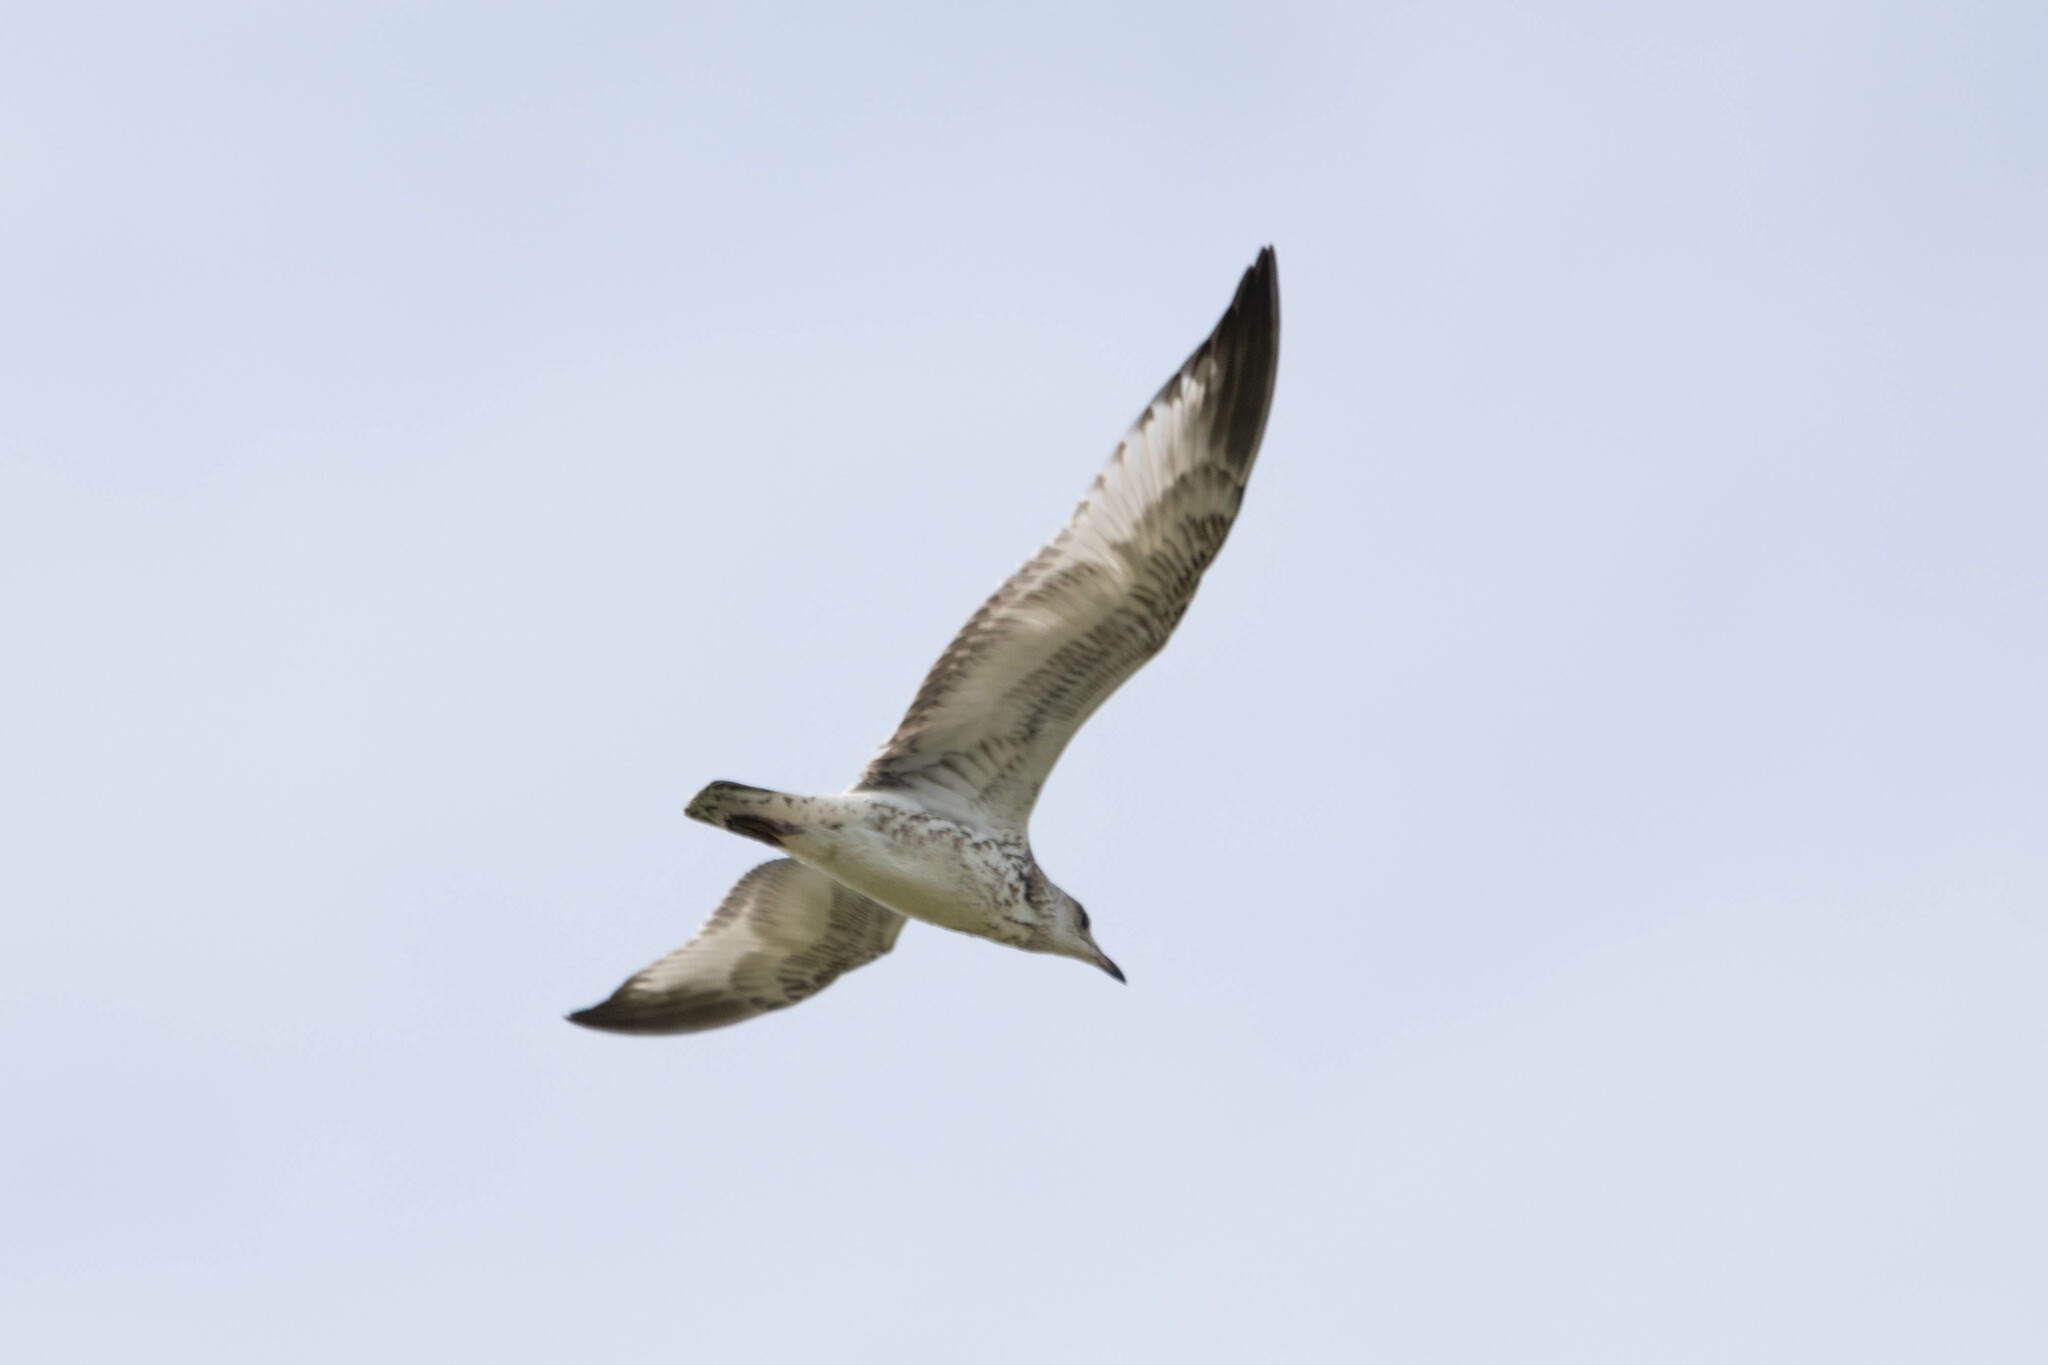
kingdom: Animalia
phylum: Chordata
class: Aves
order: Charadriiformes
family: Laridae
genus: Larus
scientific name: Larus delawarensis
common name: Ring-billed gull
